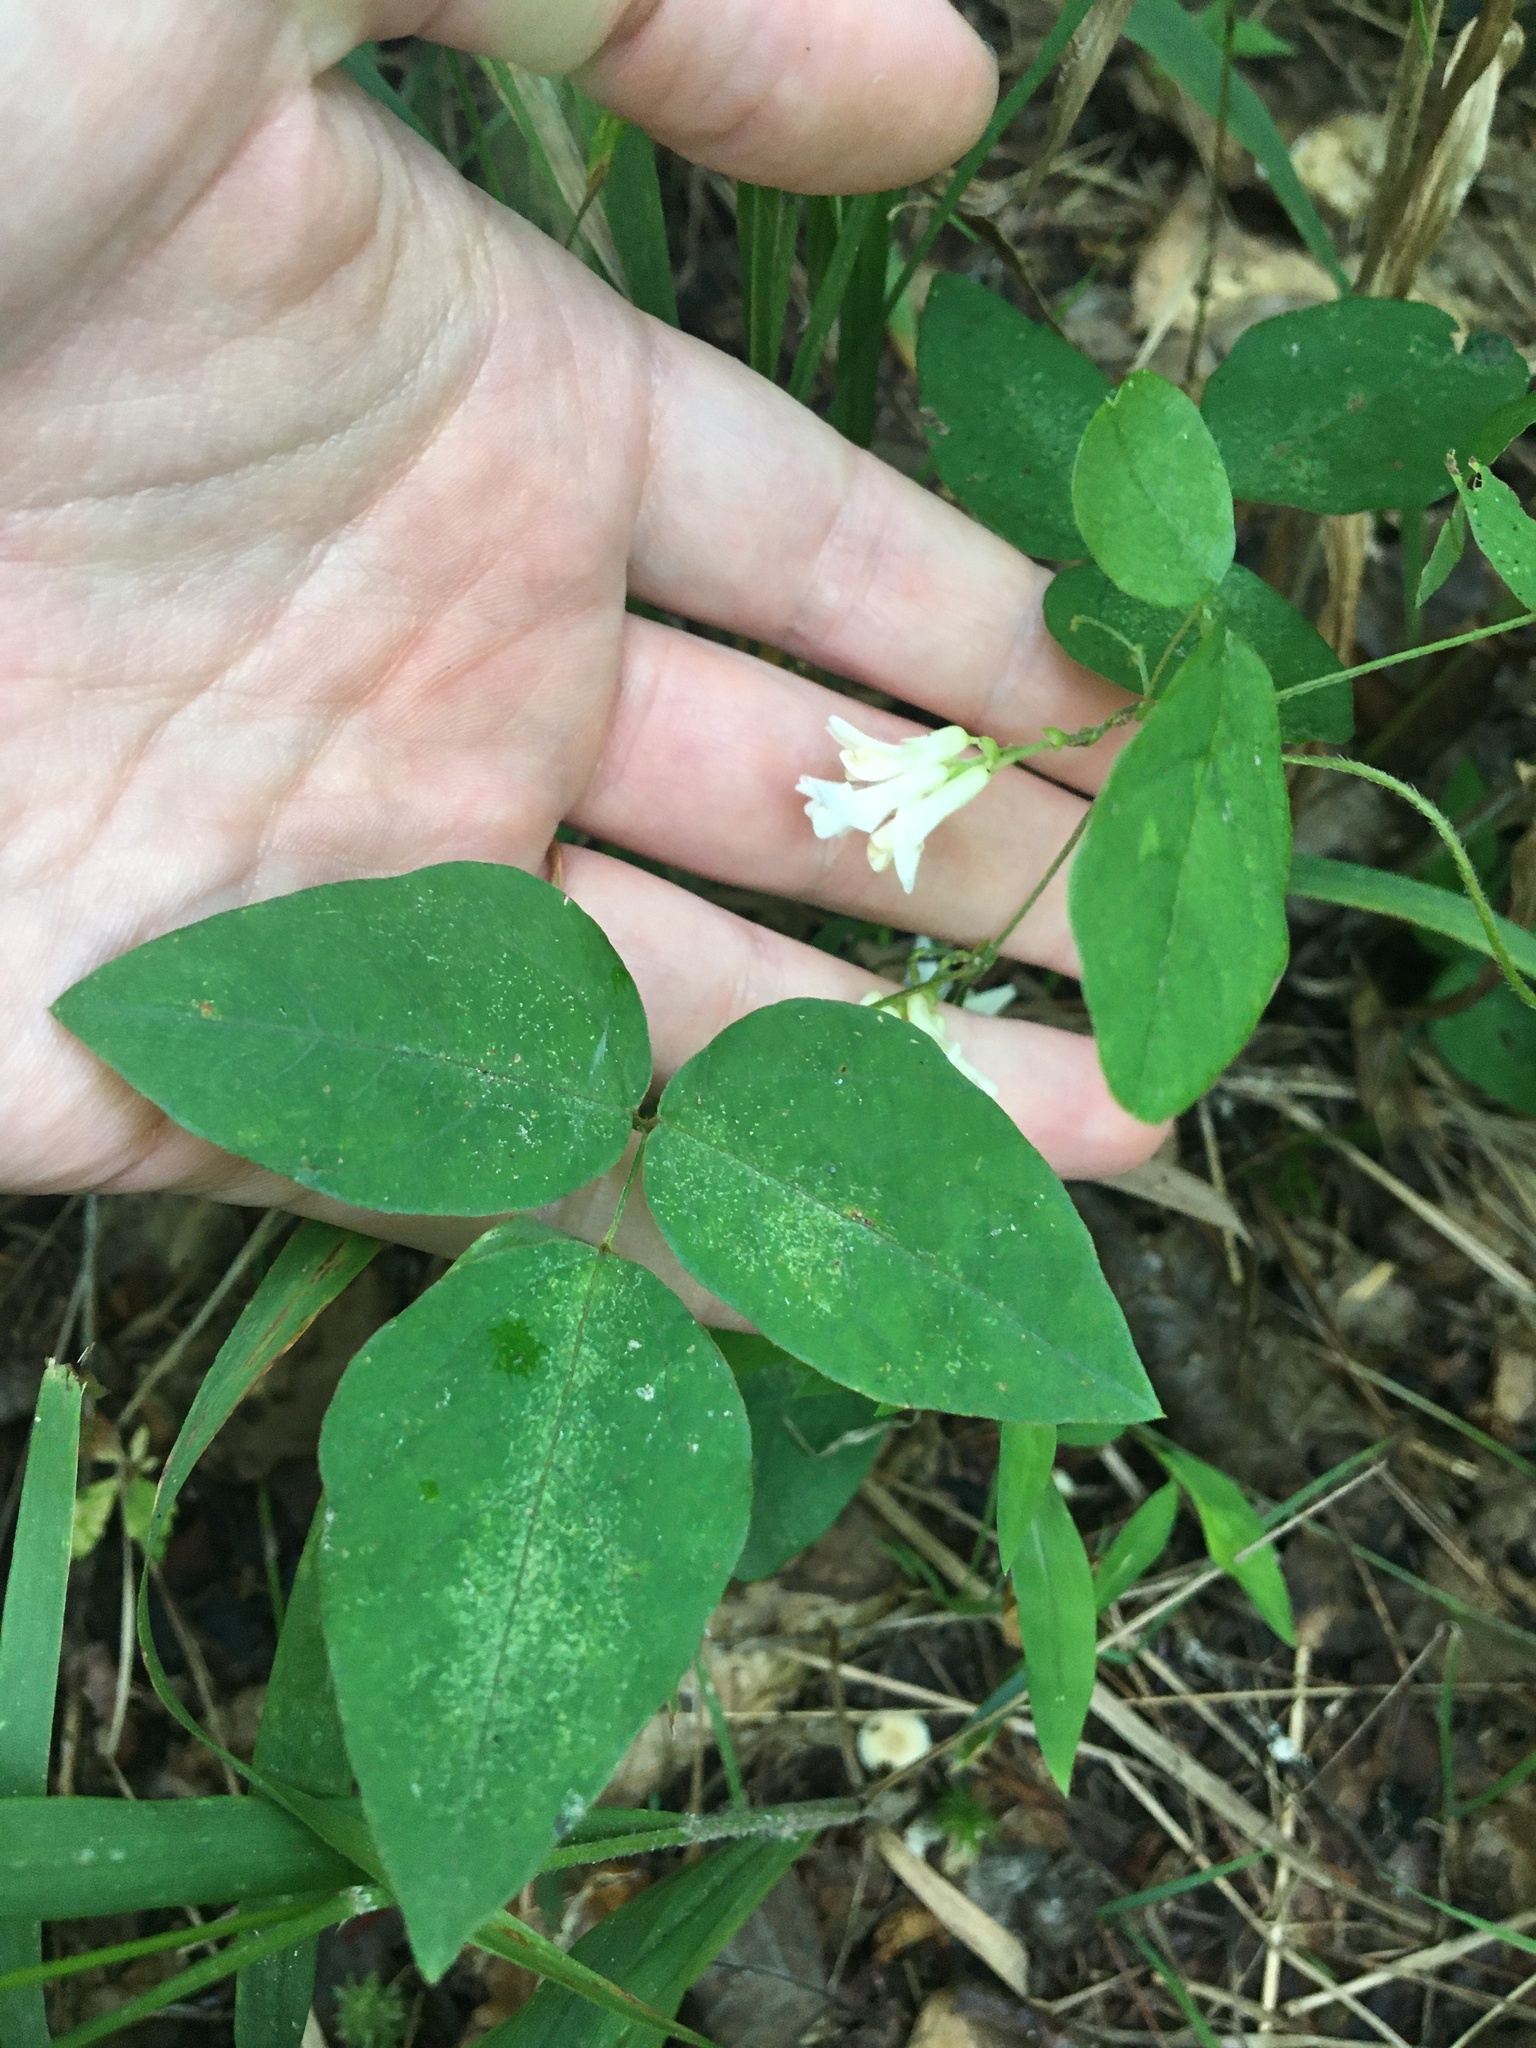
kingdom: Plantae
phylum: Tracheophyta
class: Magnoliopsida
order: Fabales
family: Fabaceae
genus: Amphicarpaea
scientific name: Amphicarpaea bracteata
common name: American hog peanut
